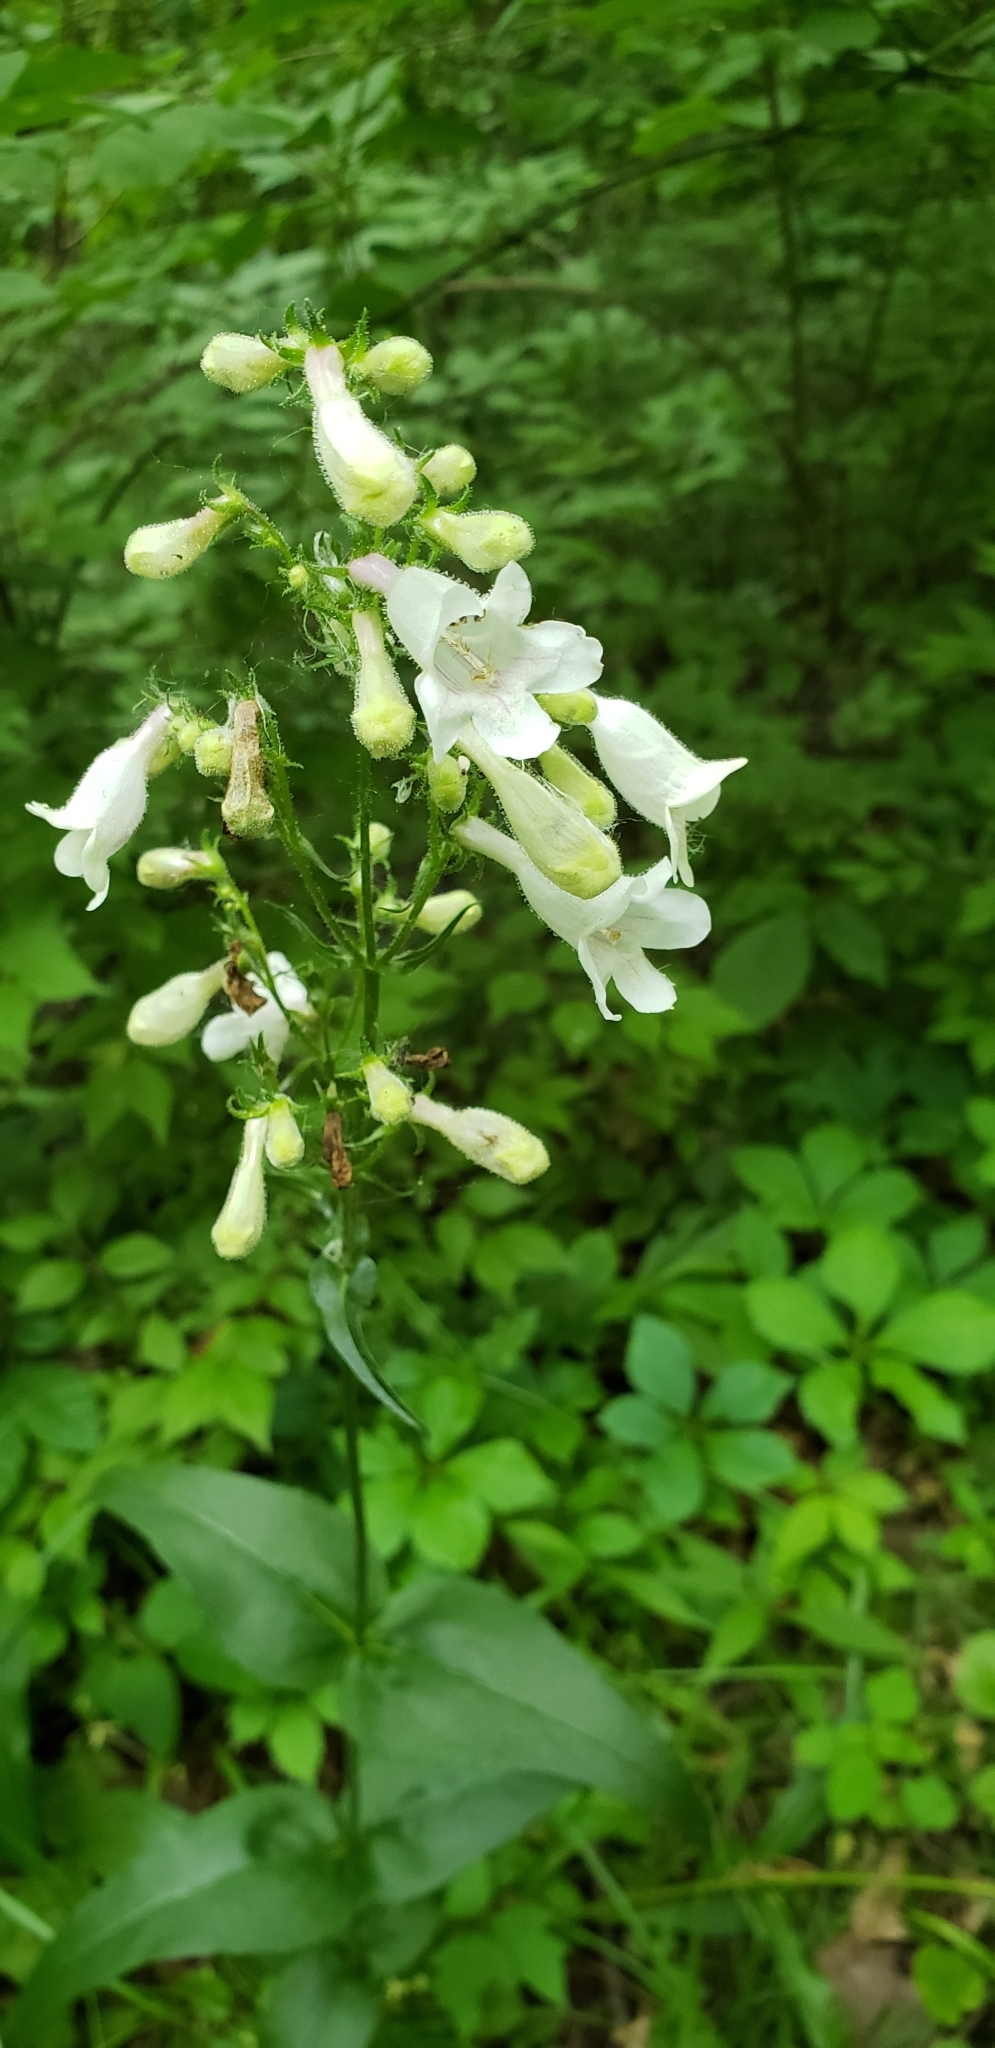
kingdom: Plantae
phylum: Tracheophyta
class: Magnoliopsida
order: Lamiales
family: Plantaginaceae
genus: Penstemon
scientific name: Penstemon digitalis
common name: Foxglove beardtongue
